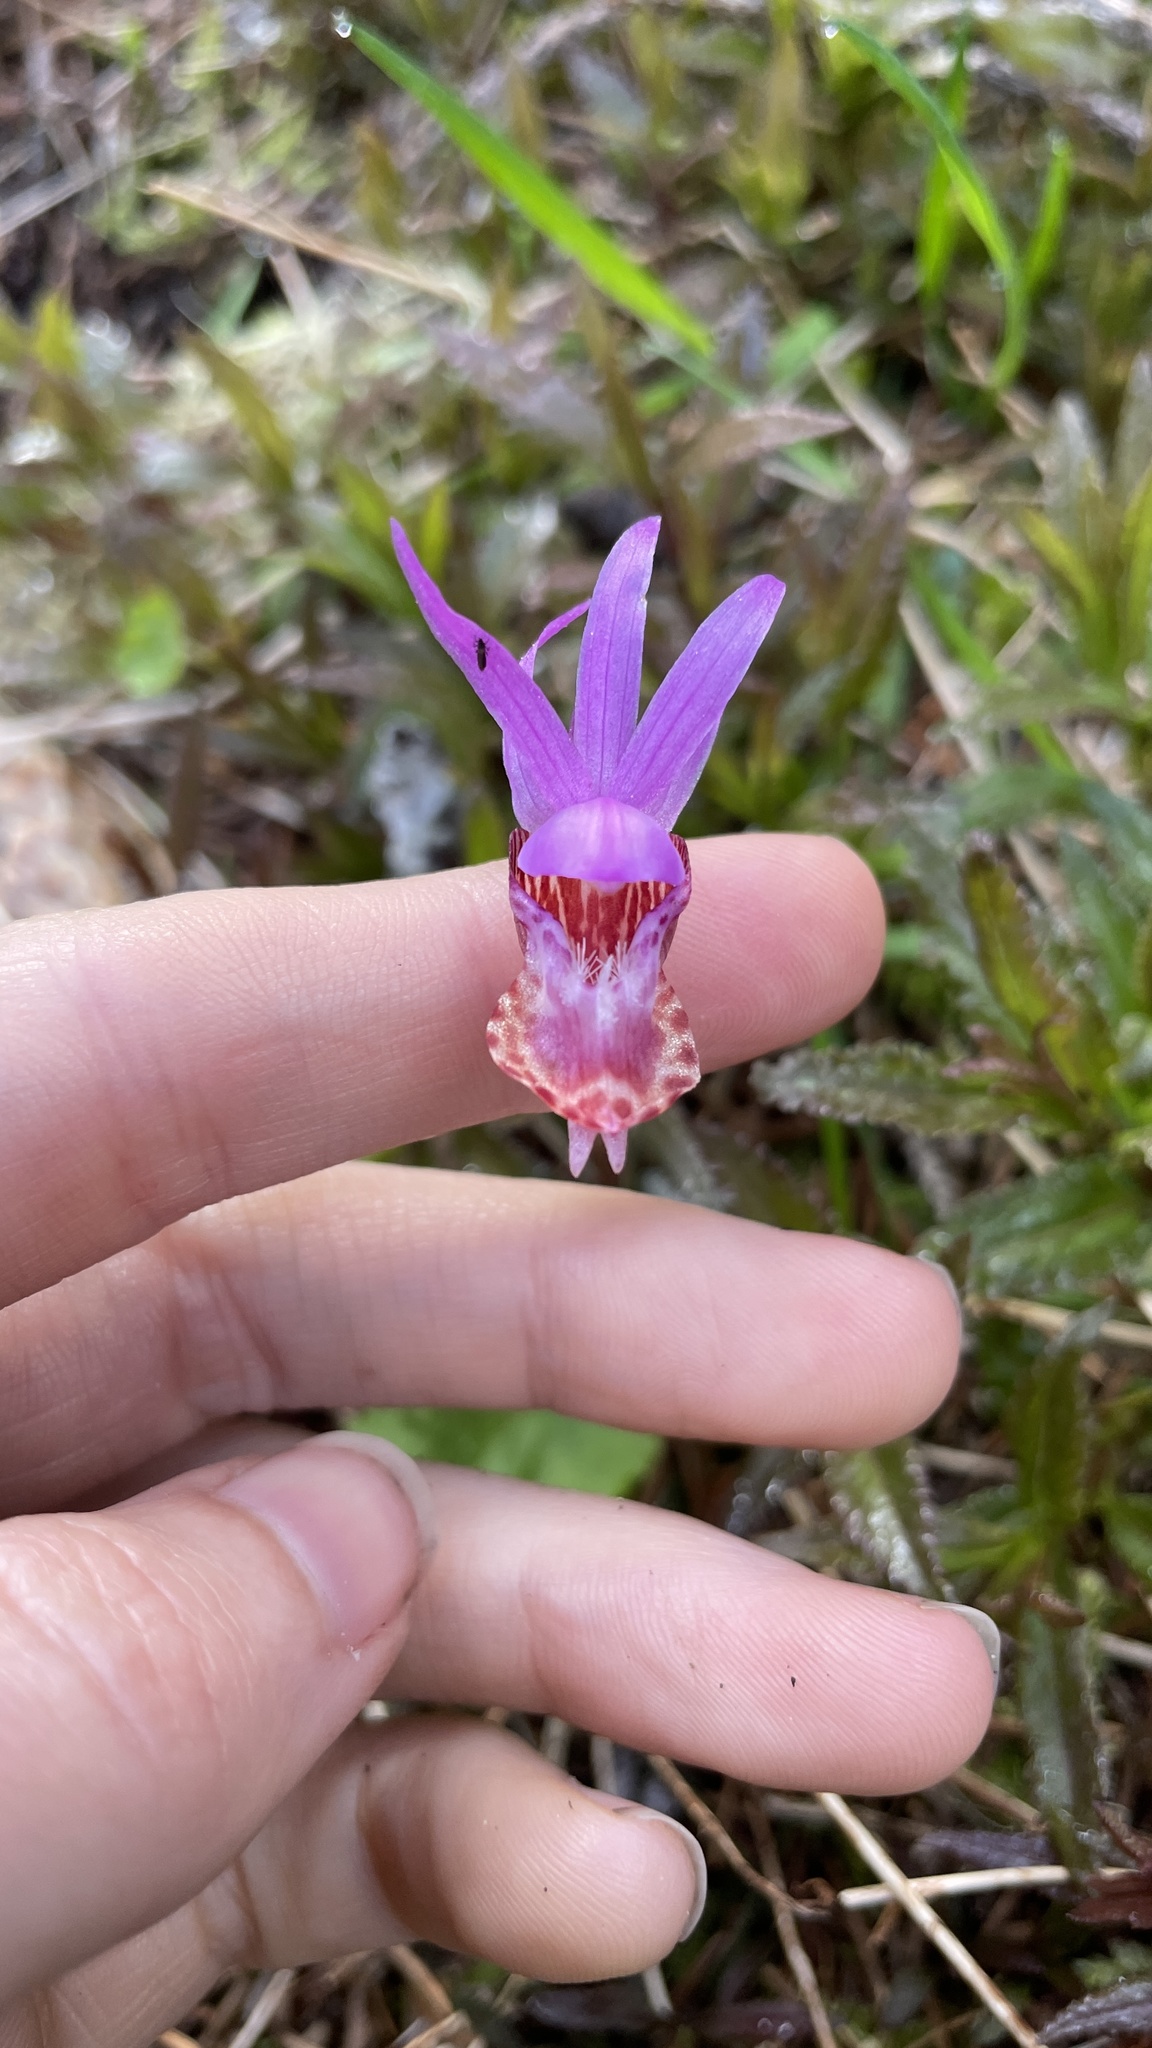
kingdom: Plantae
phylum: Tracheophyta
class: Liliopsida
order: Asparagales
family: Orchidaceae
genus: Calypso
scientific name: Calypso bulbosa
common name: Calypso
